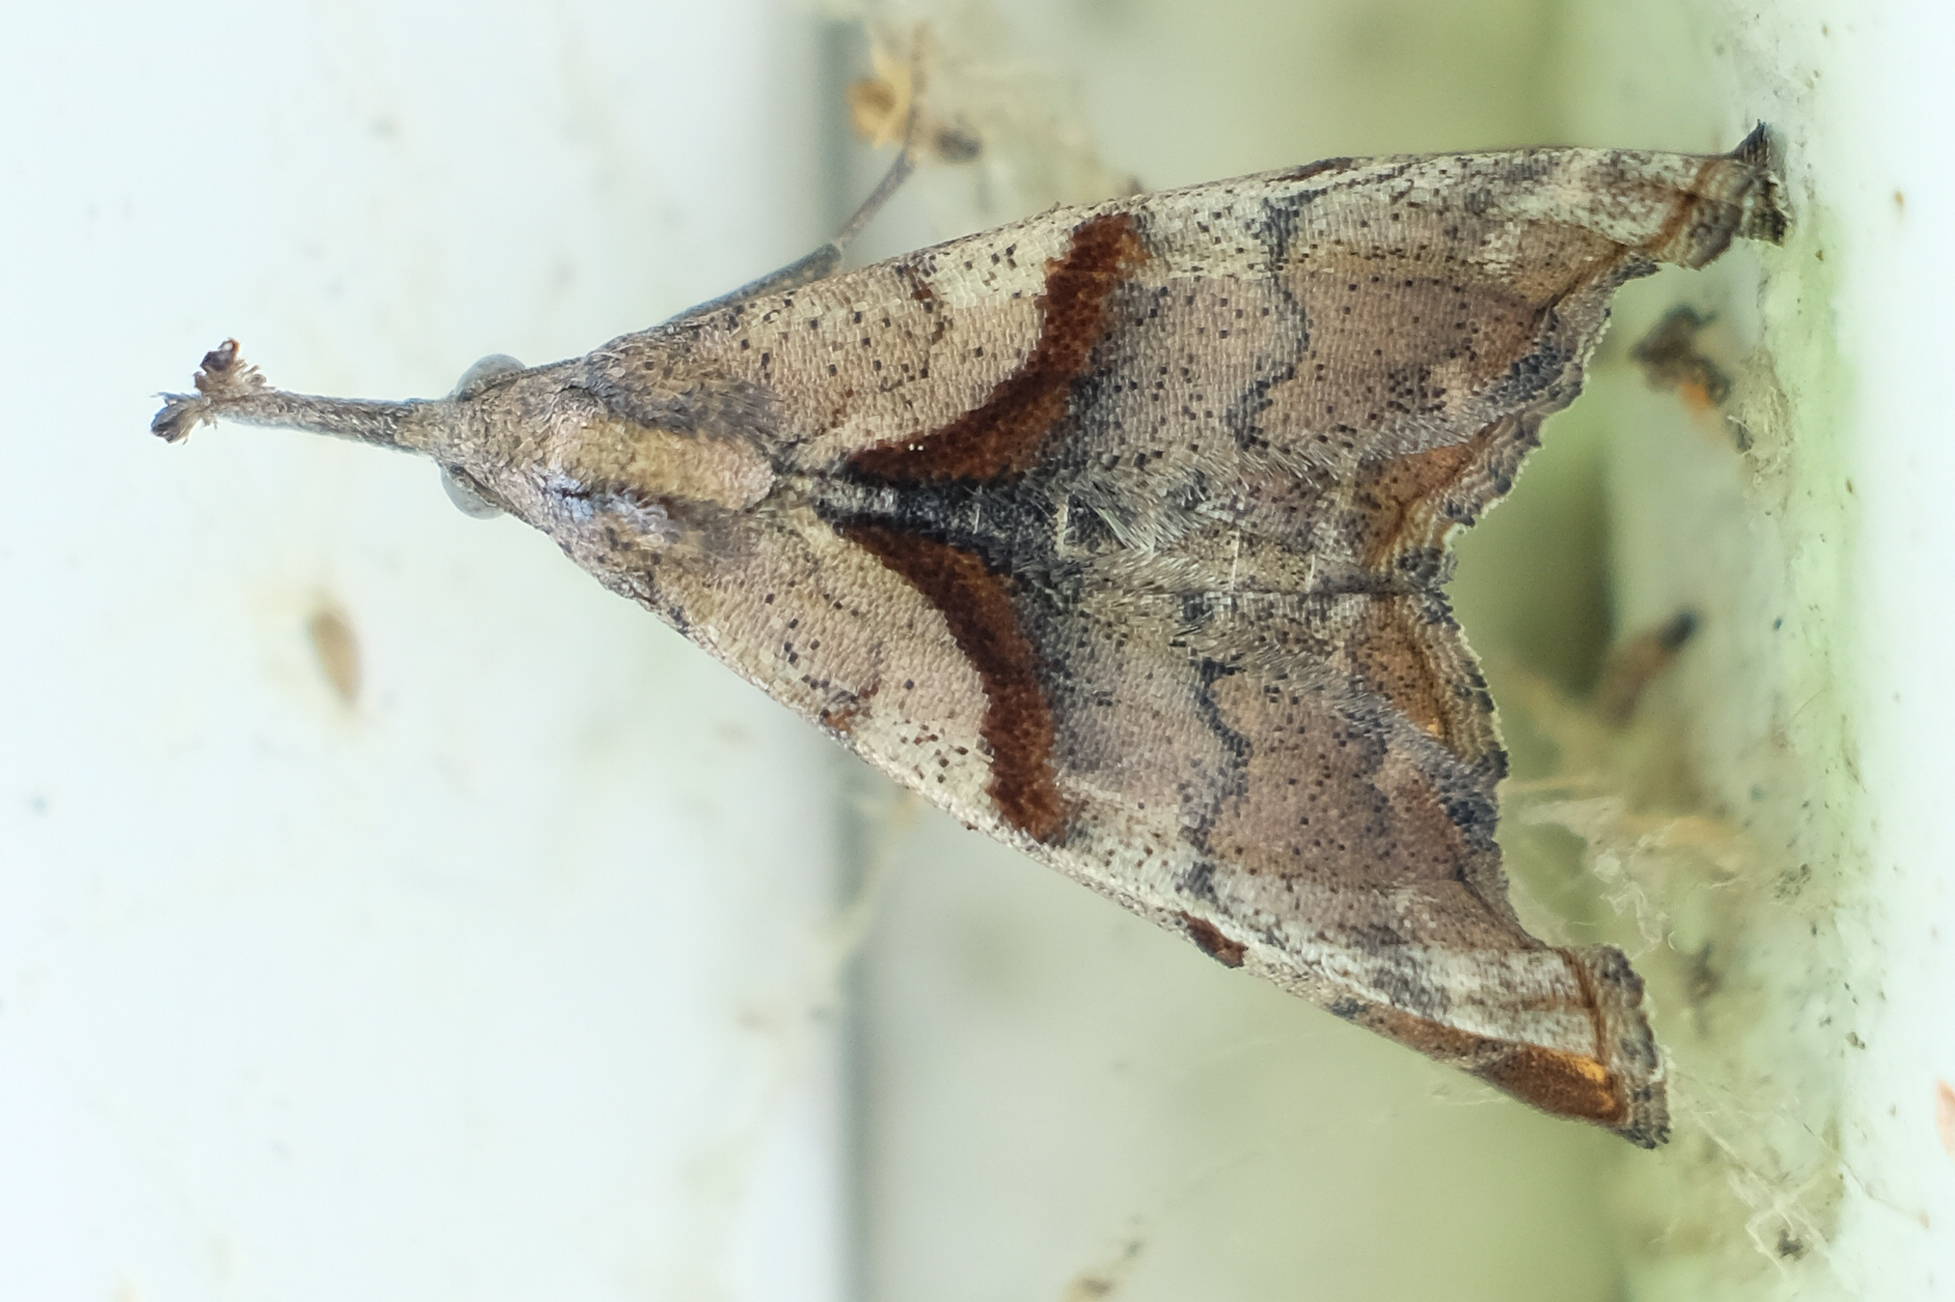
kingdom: Animalia
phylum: Arthropoda
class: Insecta
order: Lepidoptera
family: Erebidae
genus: Palthis
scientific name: Palthis angulalis
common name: Dark-spotted palthis moth
